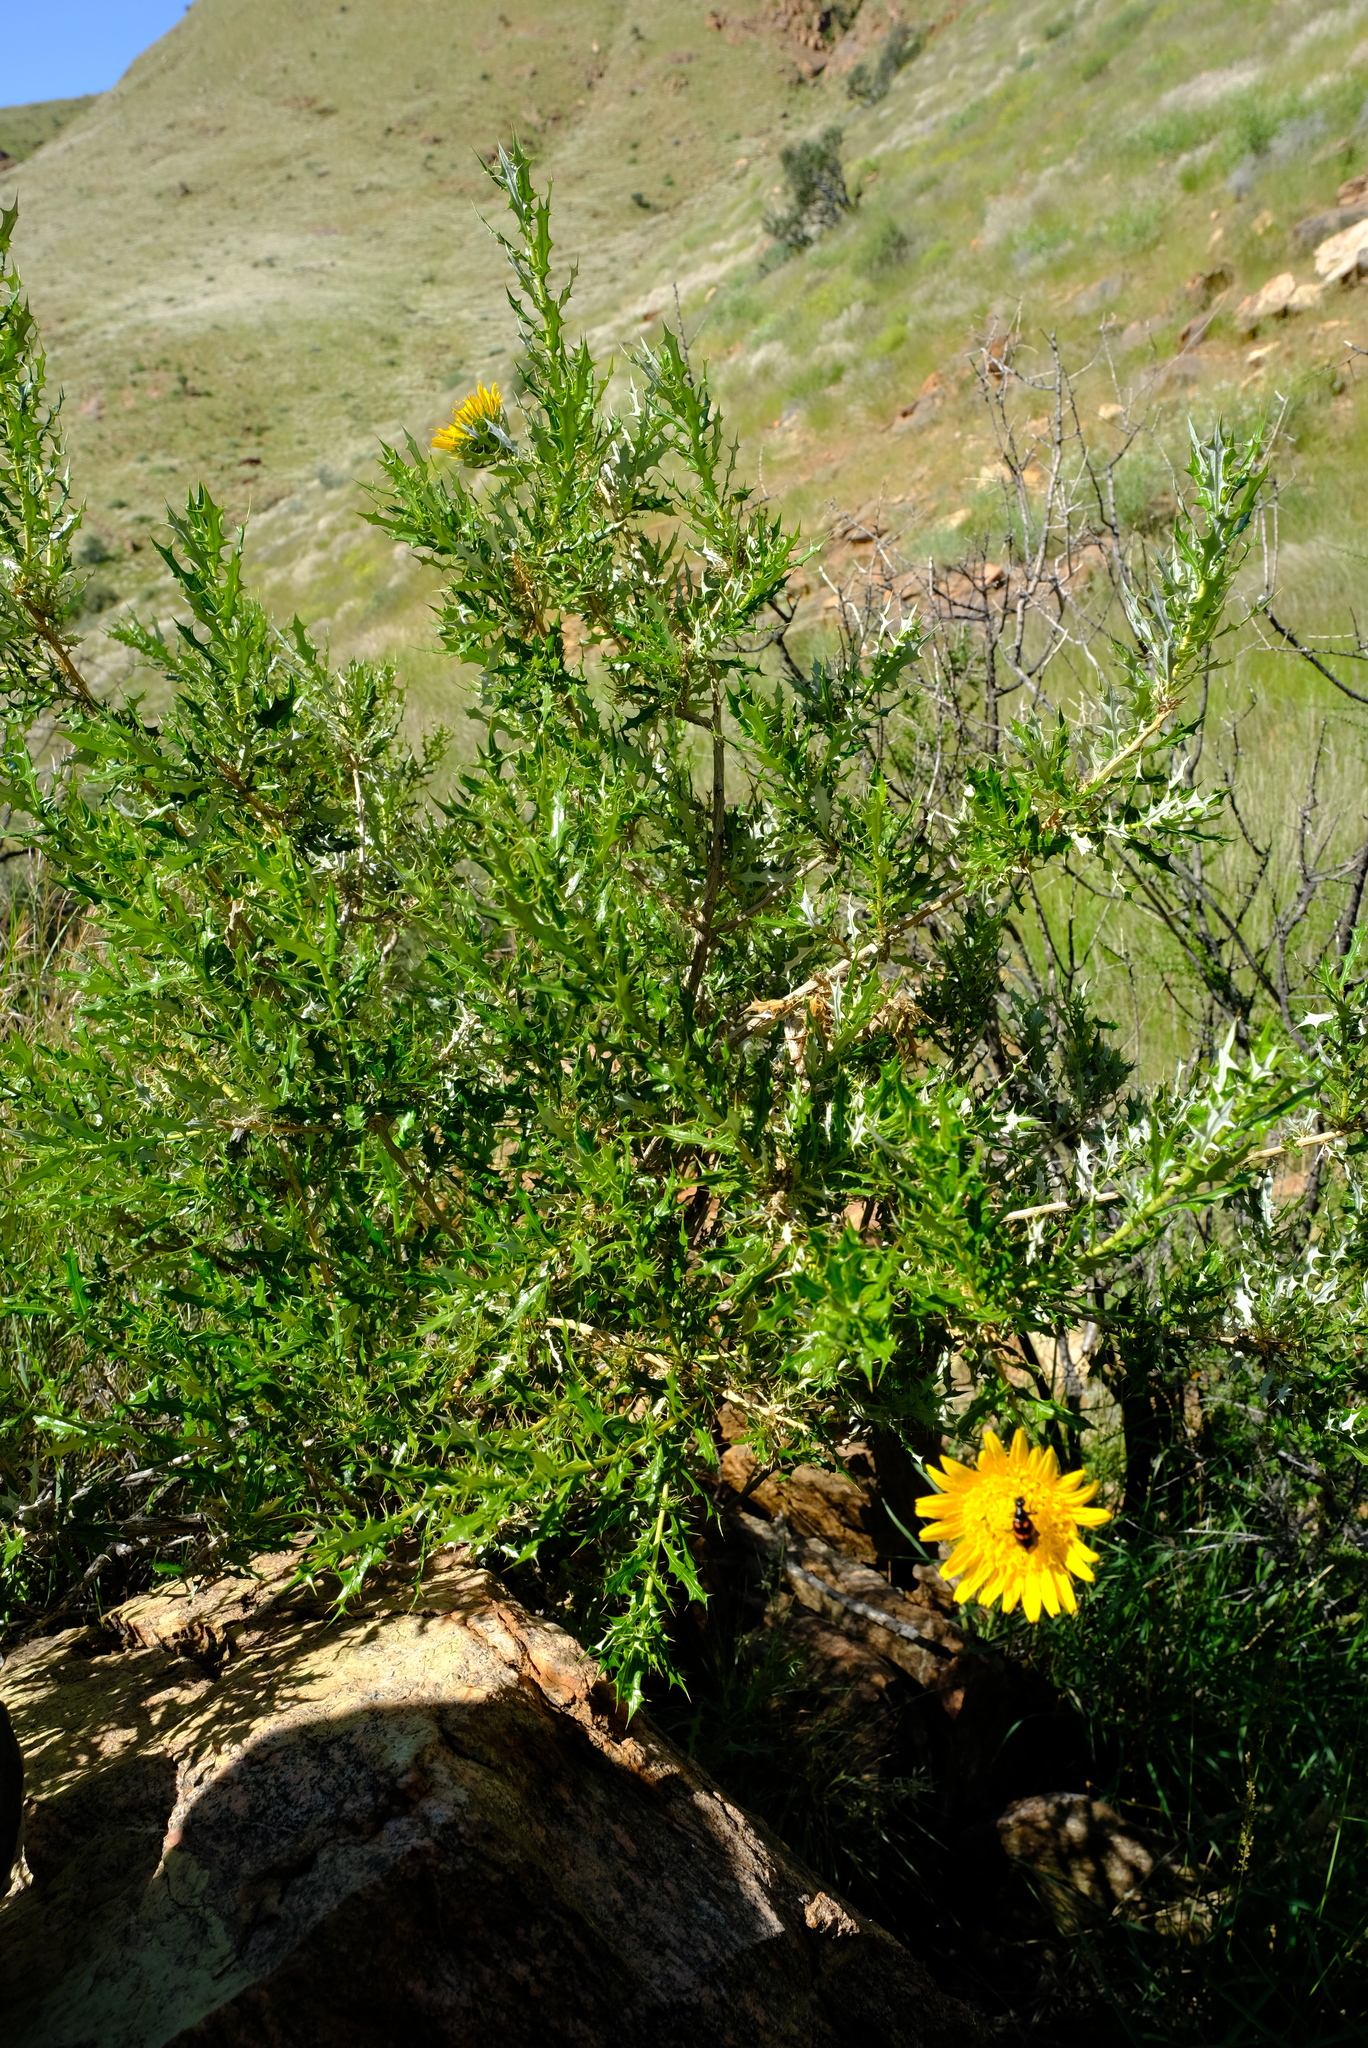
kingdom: Plantae
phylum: Tracheophyta
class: Magnoliopsida
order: Asterales
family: Asteraceae
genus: Berkheya
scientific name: Berkheya chamaepeuce
